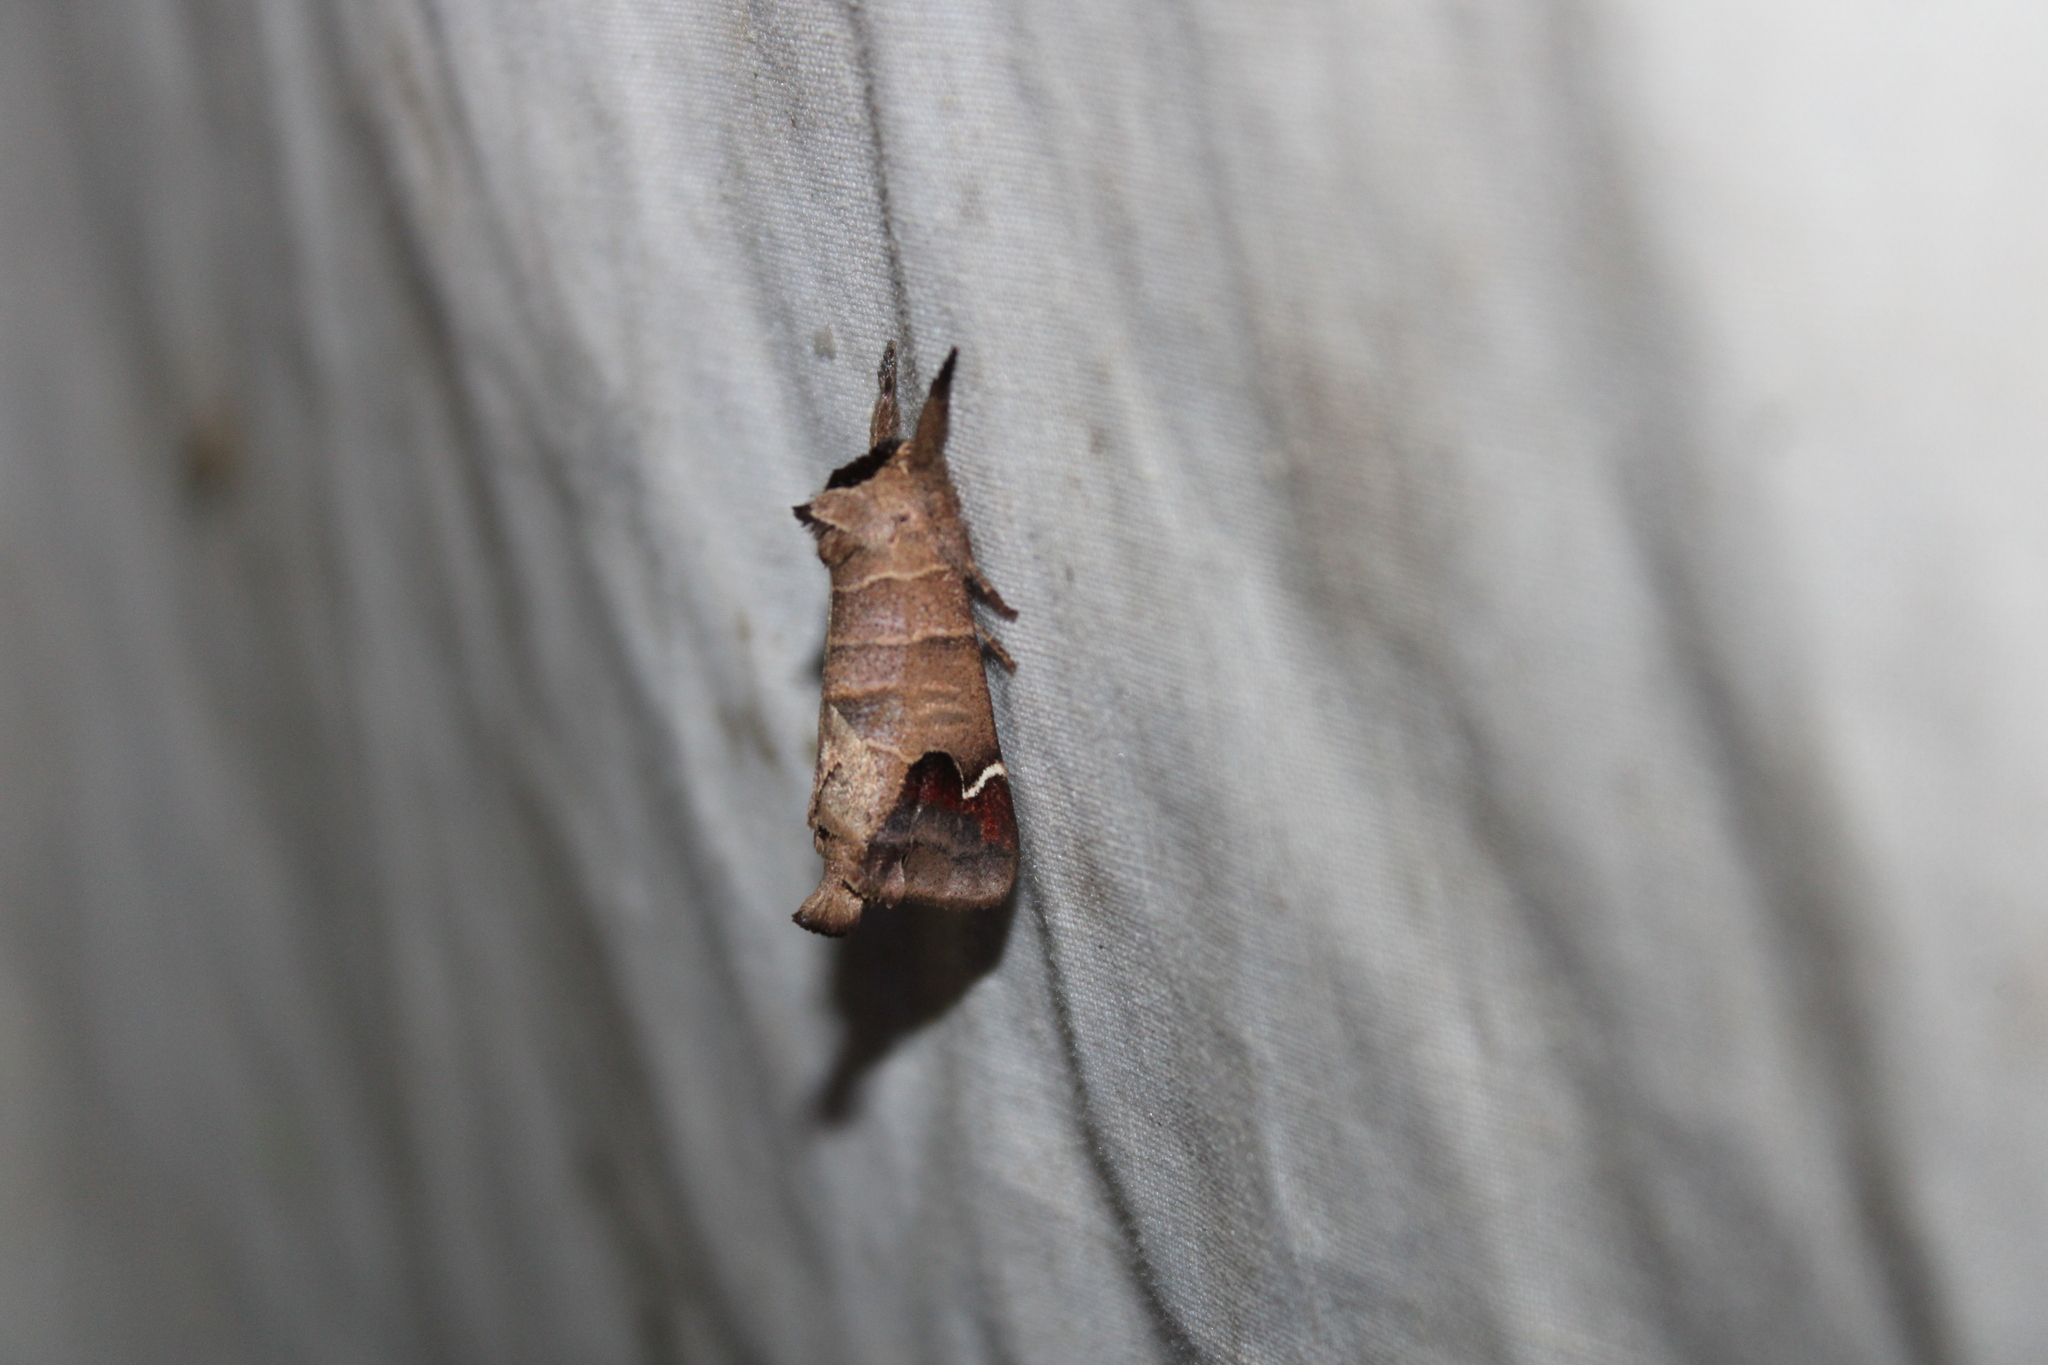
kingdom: Animalia
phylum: Arthropoda
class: Insecta
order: Lepidoptera
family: Notodontidae
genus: Clostera
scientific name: Clostera albosigma
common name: Sigmoid prominent
